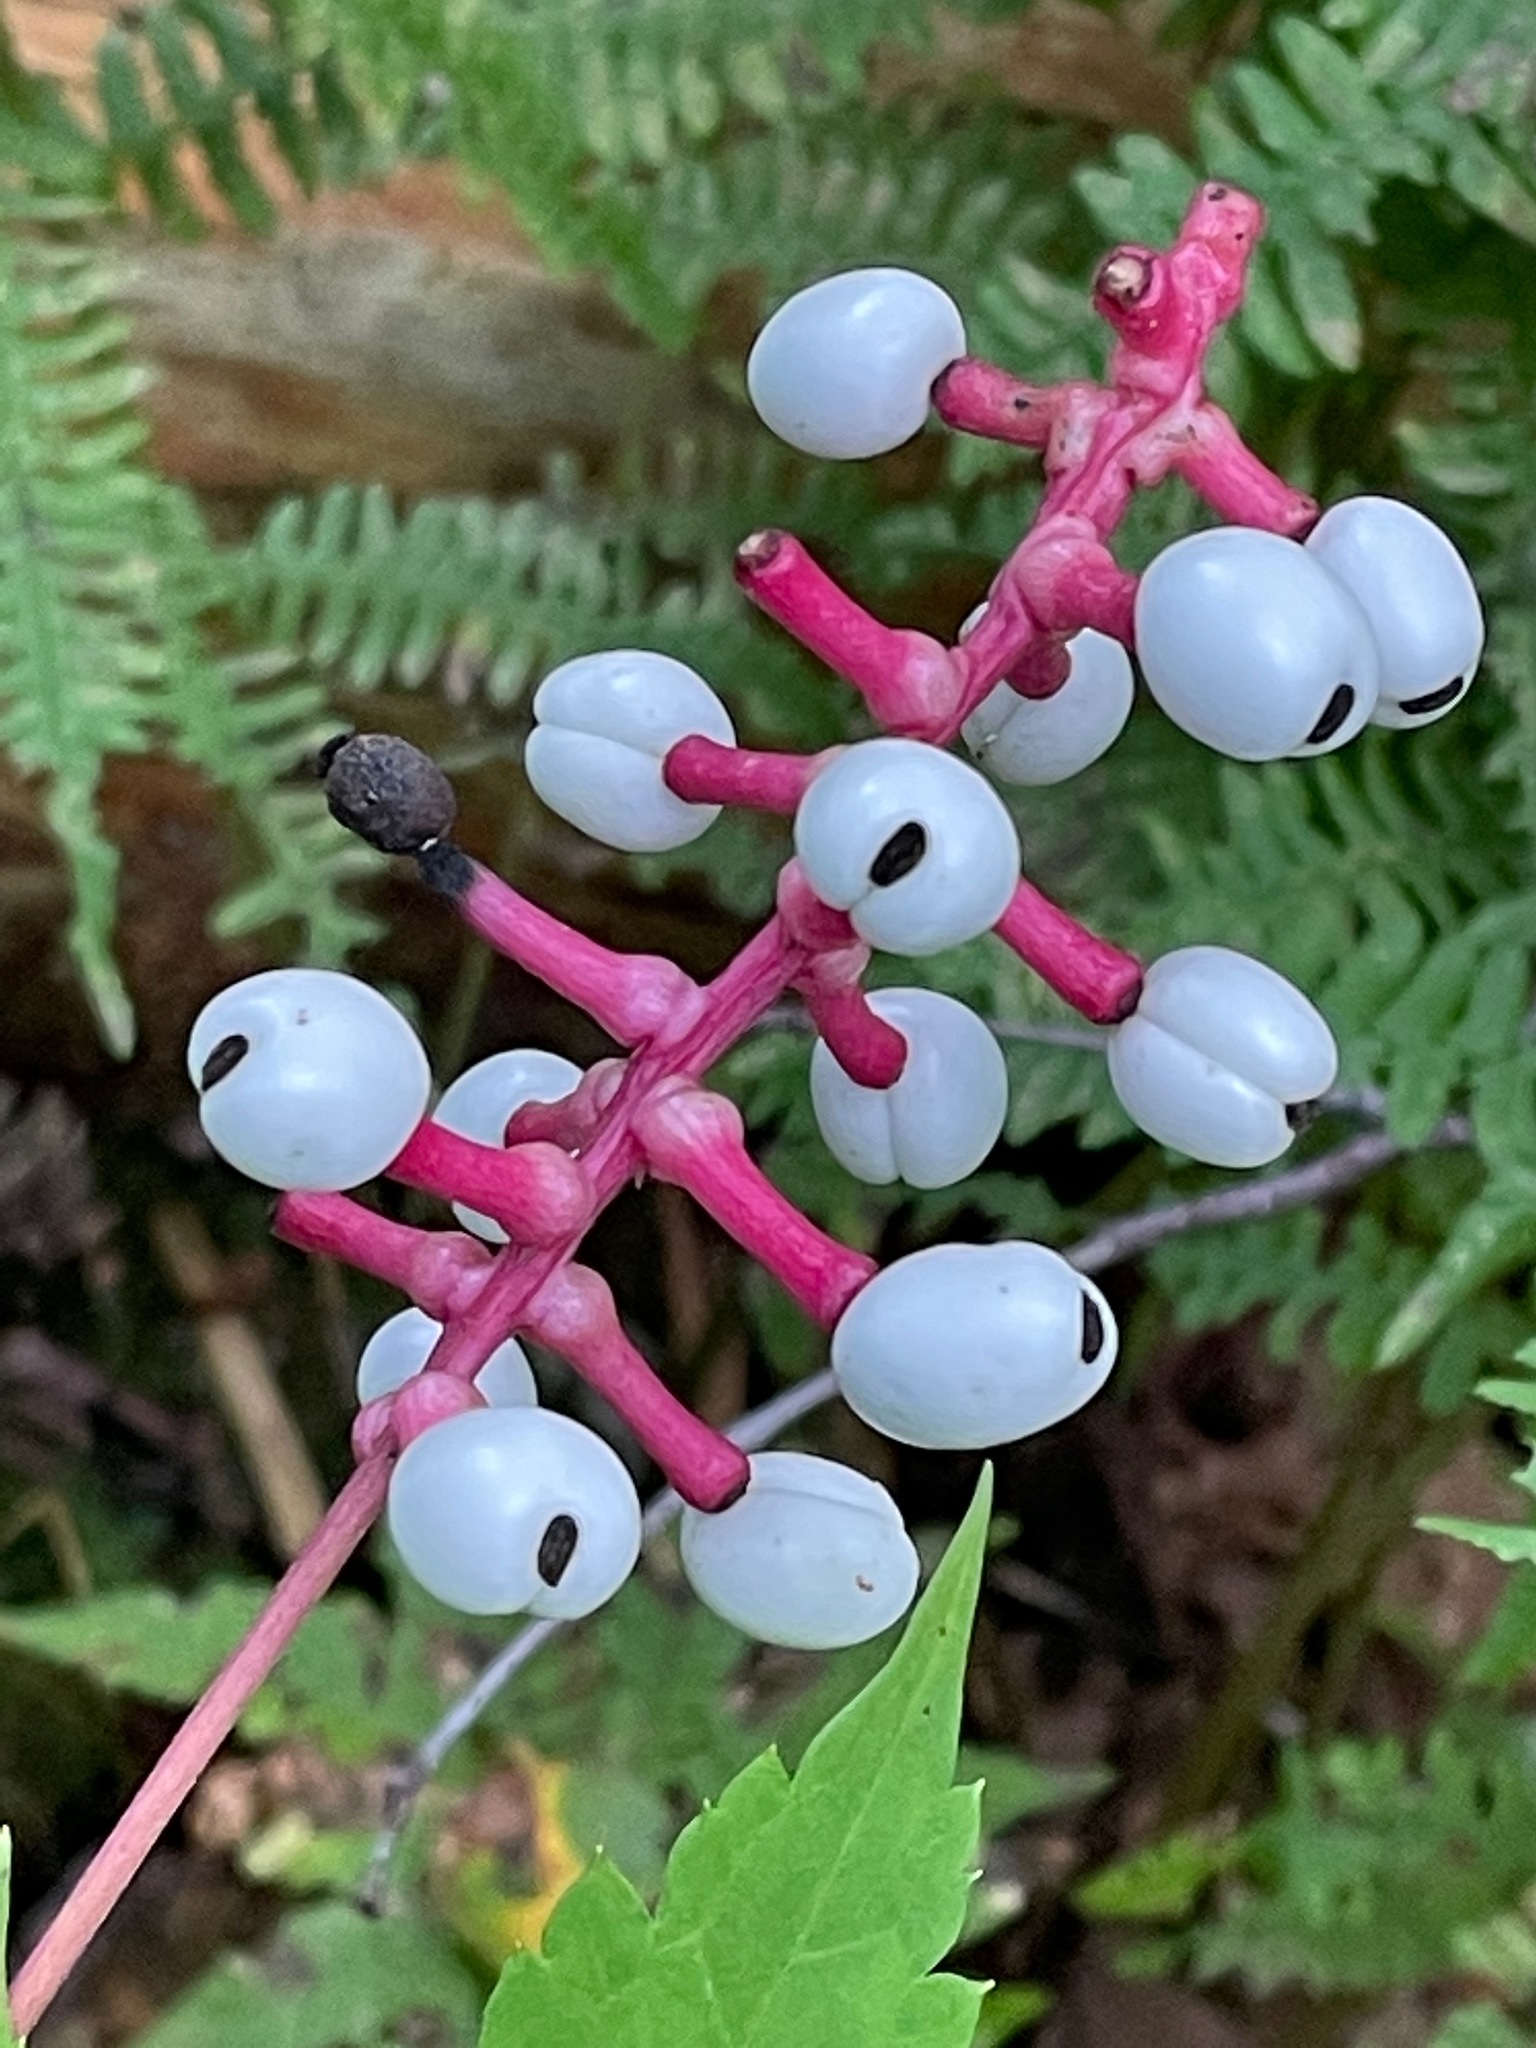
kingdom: Plantae
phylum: Tracheophyta
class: Magnoliopsida
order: Ranunculales
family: Ranunculaceae
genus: Actaea
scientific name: Actaea pachypoda
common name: Doll's-eyes
